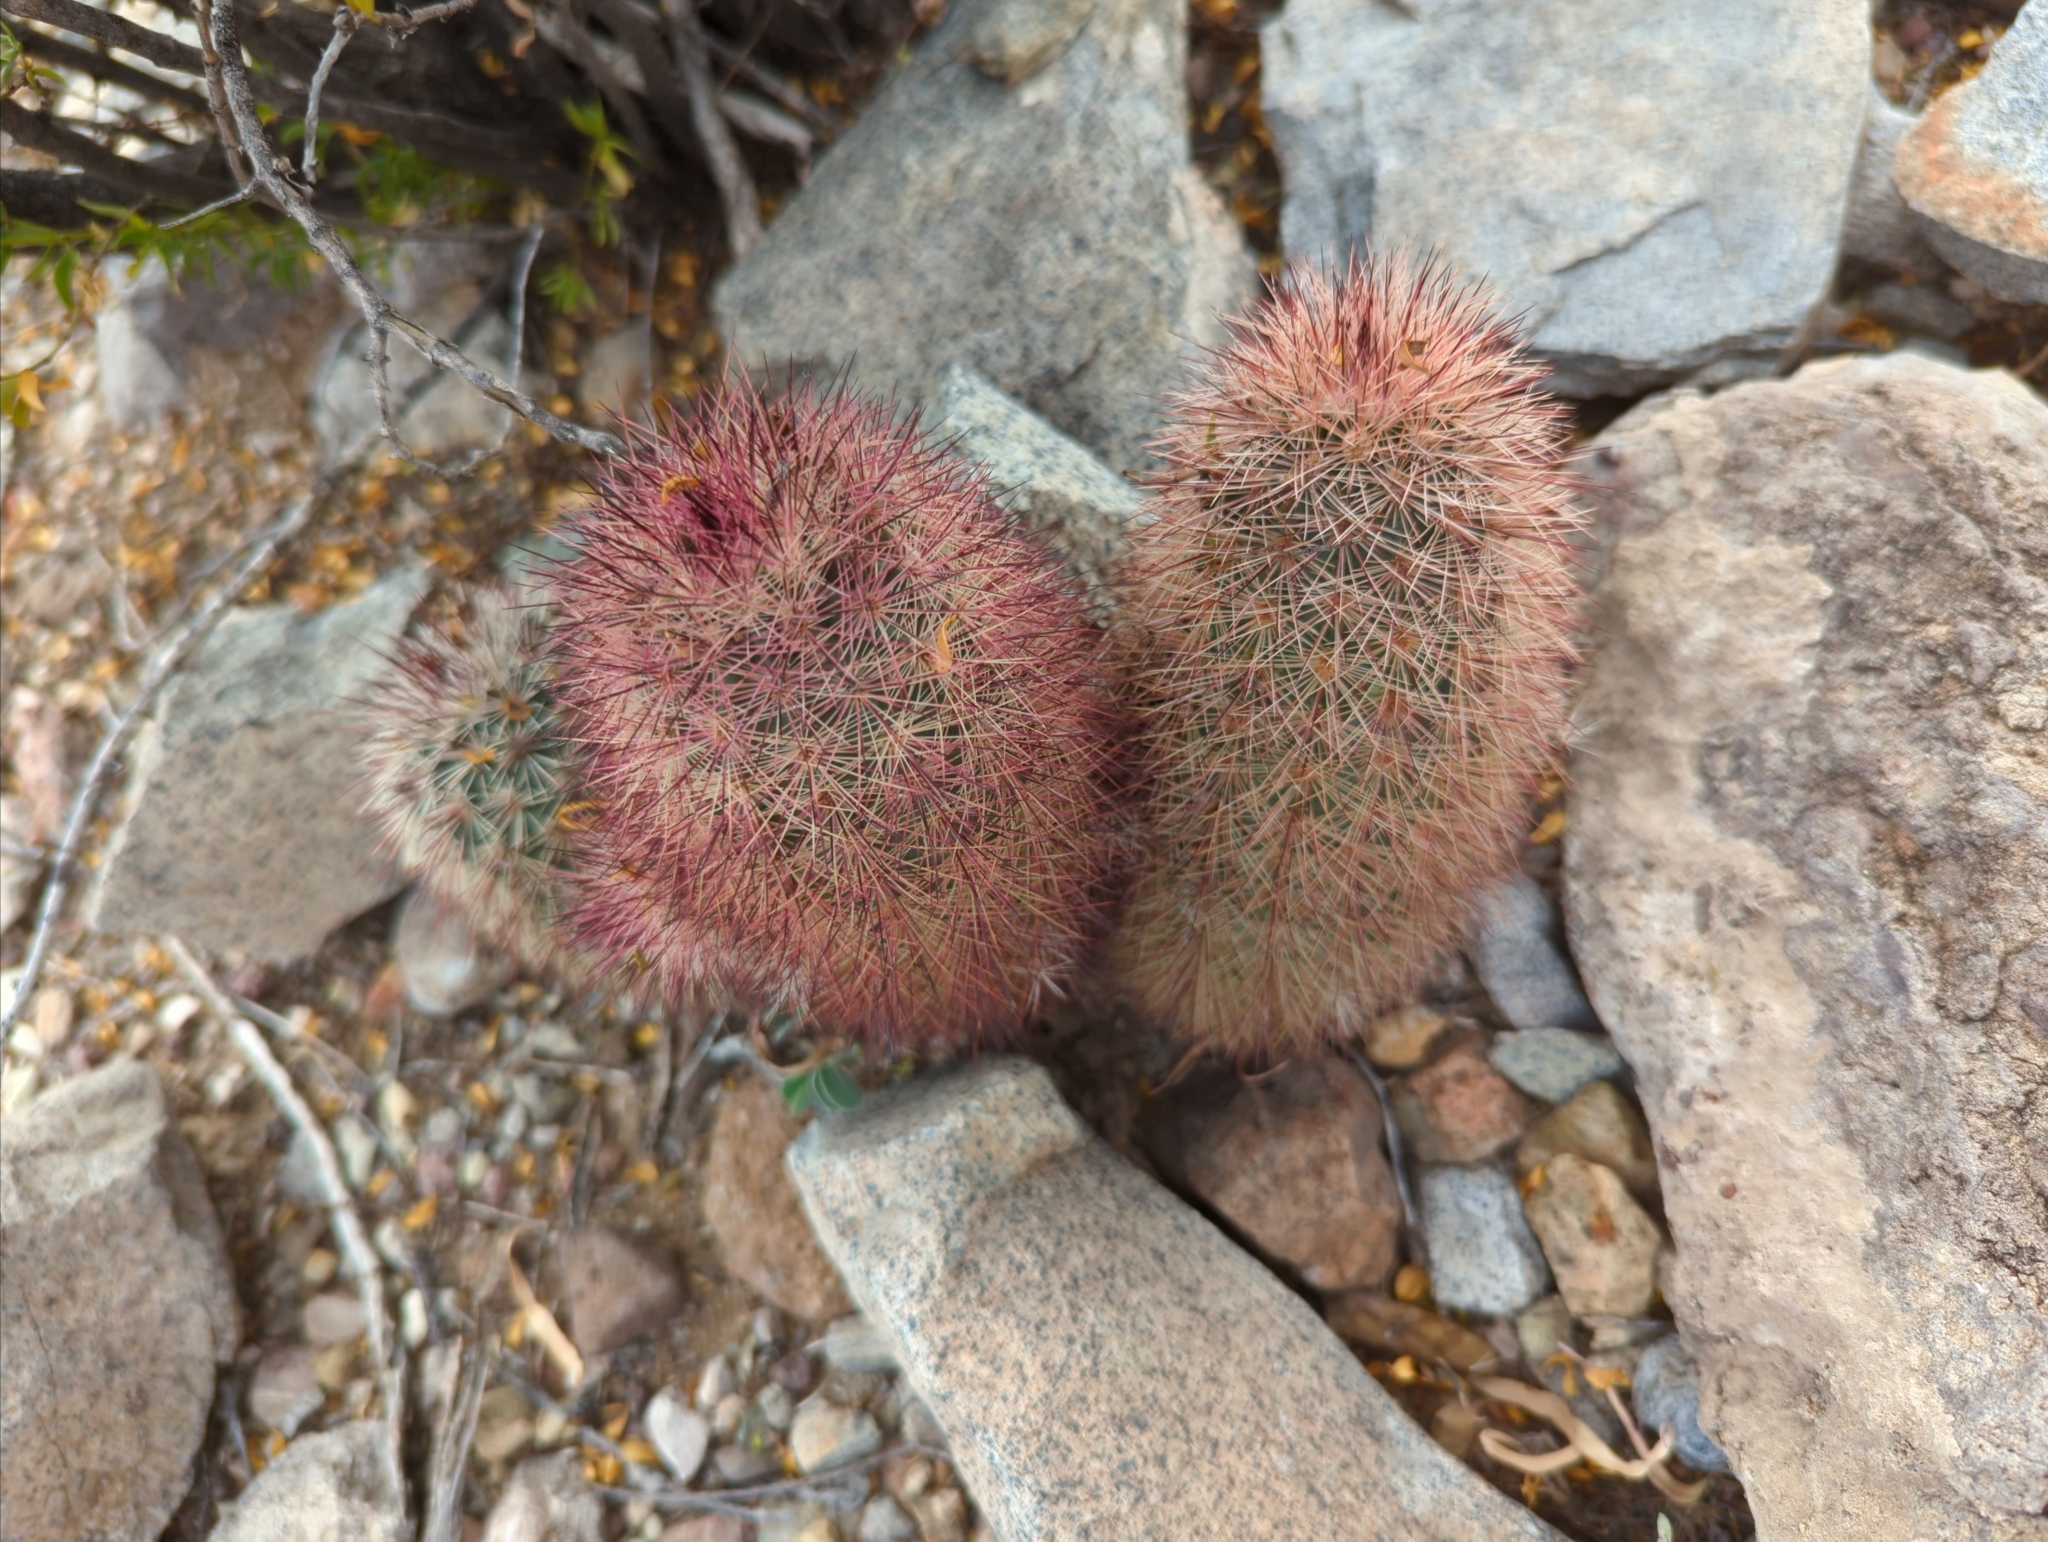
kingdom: Plantae
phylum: Tracheophyta
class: Magnoliopsida
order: Caryophyllales
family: Cactaceae
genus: Echinocereus
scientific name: Echinocereus russanthus
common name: Brownspine hedgehog cactus
